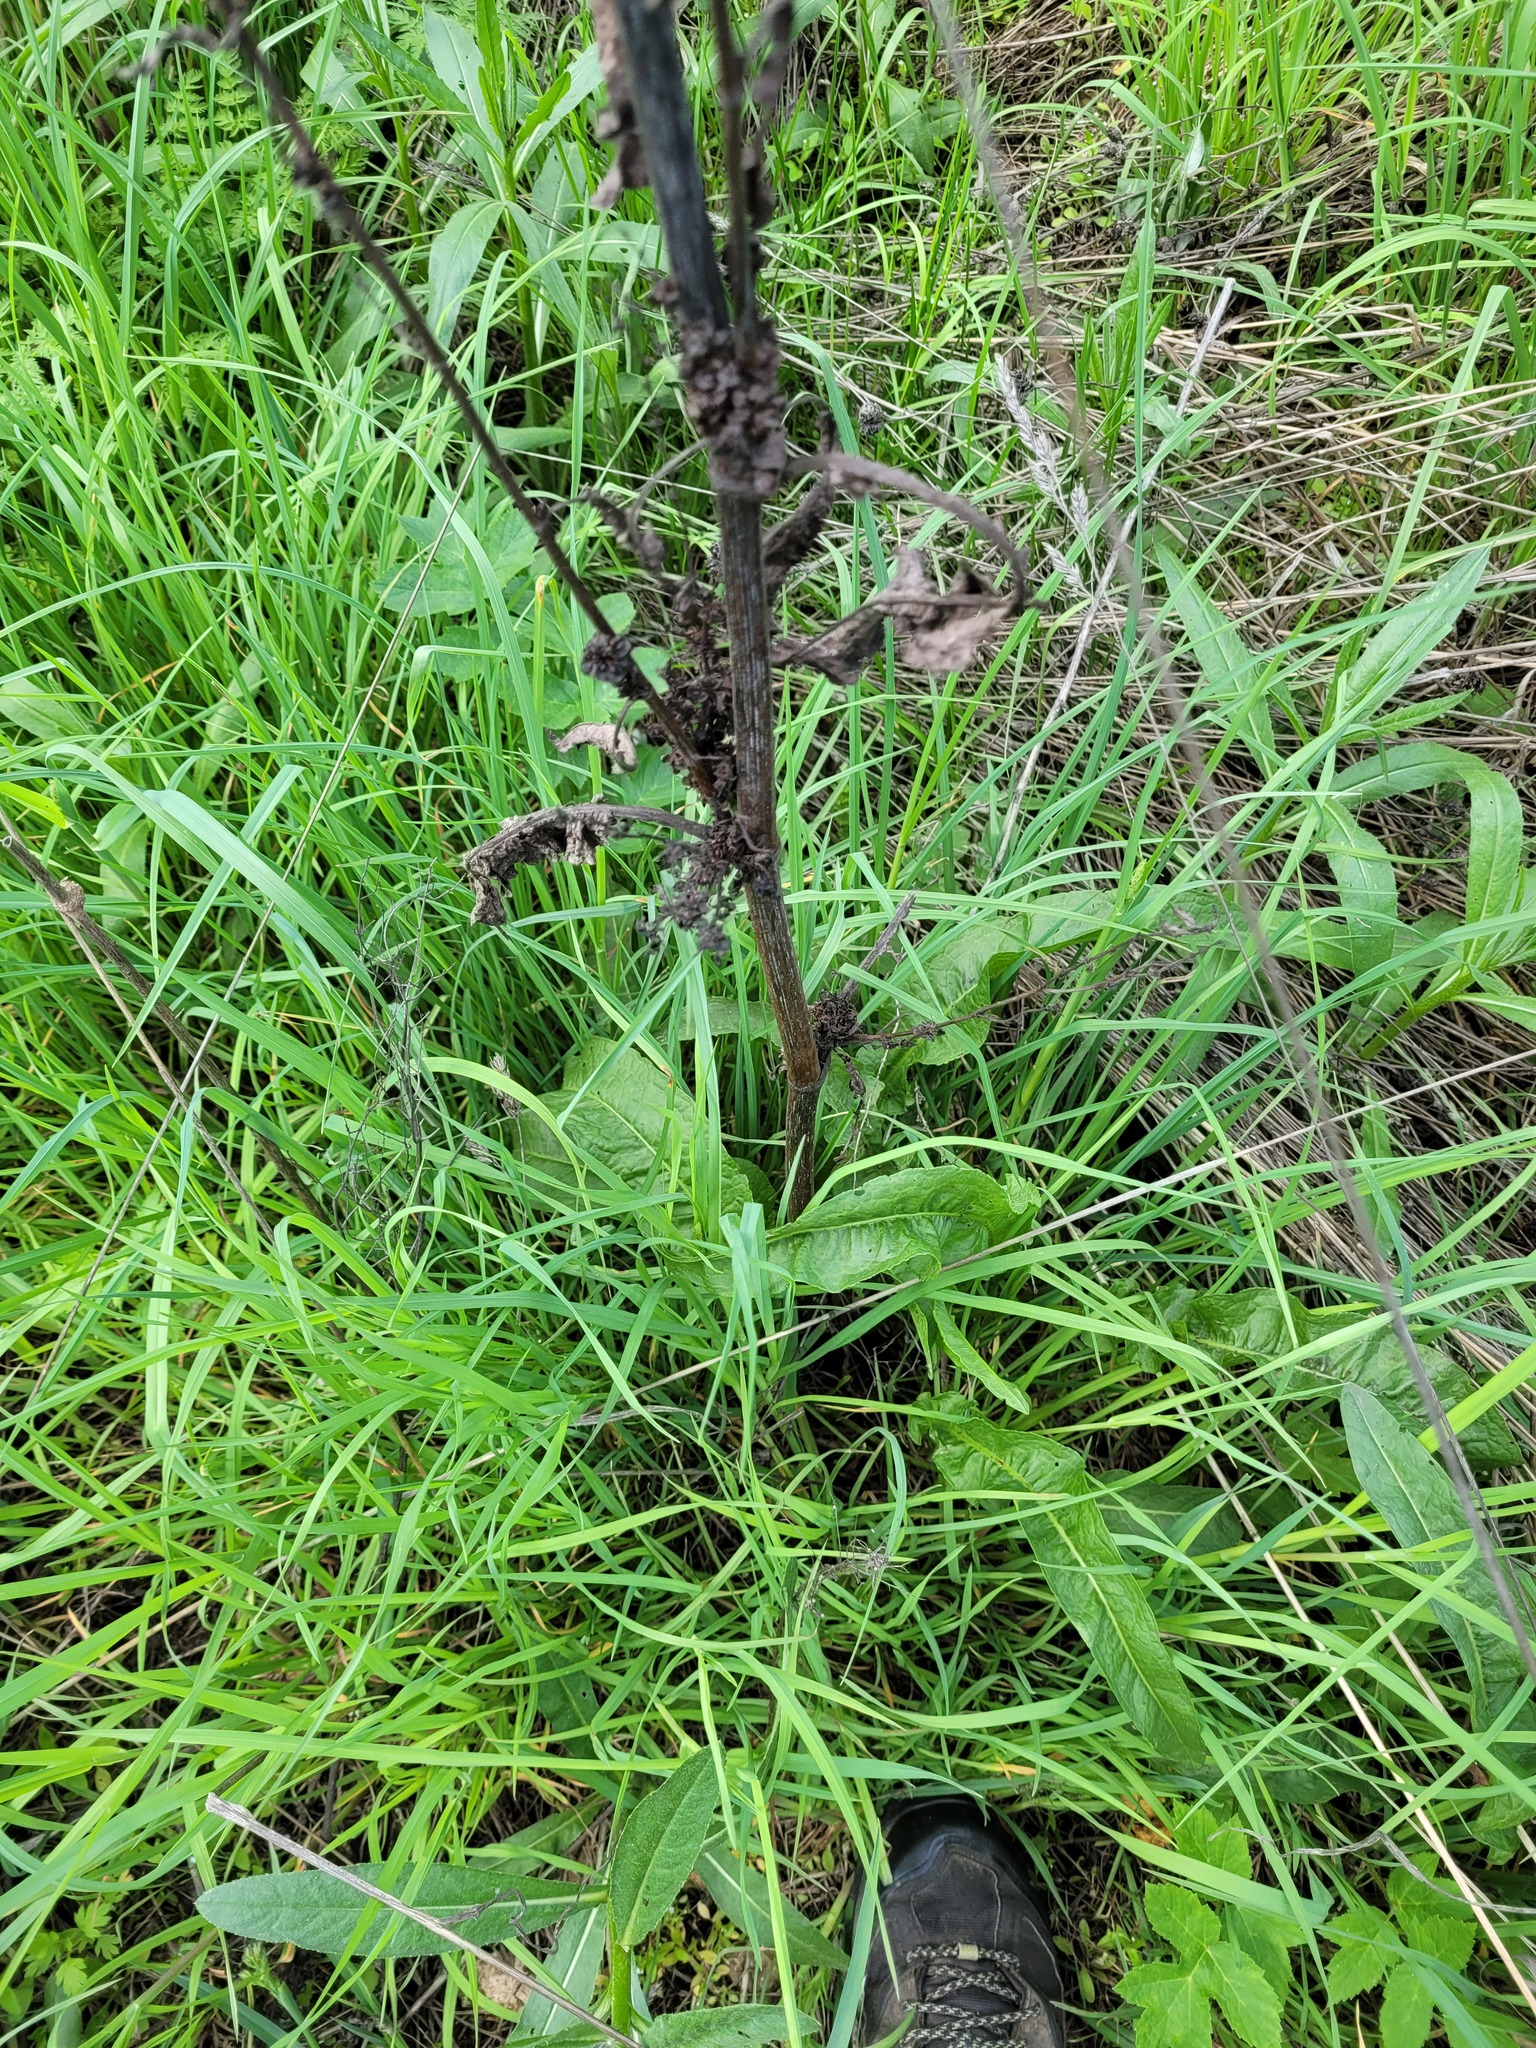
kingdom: Plantae
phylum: Tracheophyta
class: Magnoliopsida
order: Caryophyllales
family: Polygonaceae
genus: Rumex
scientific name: Rumex crispus
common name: Curled dock
